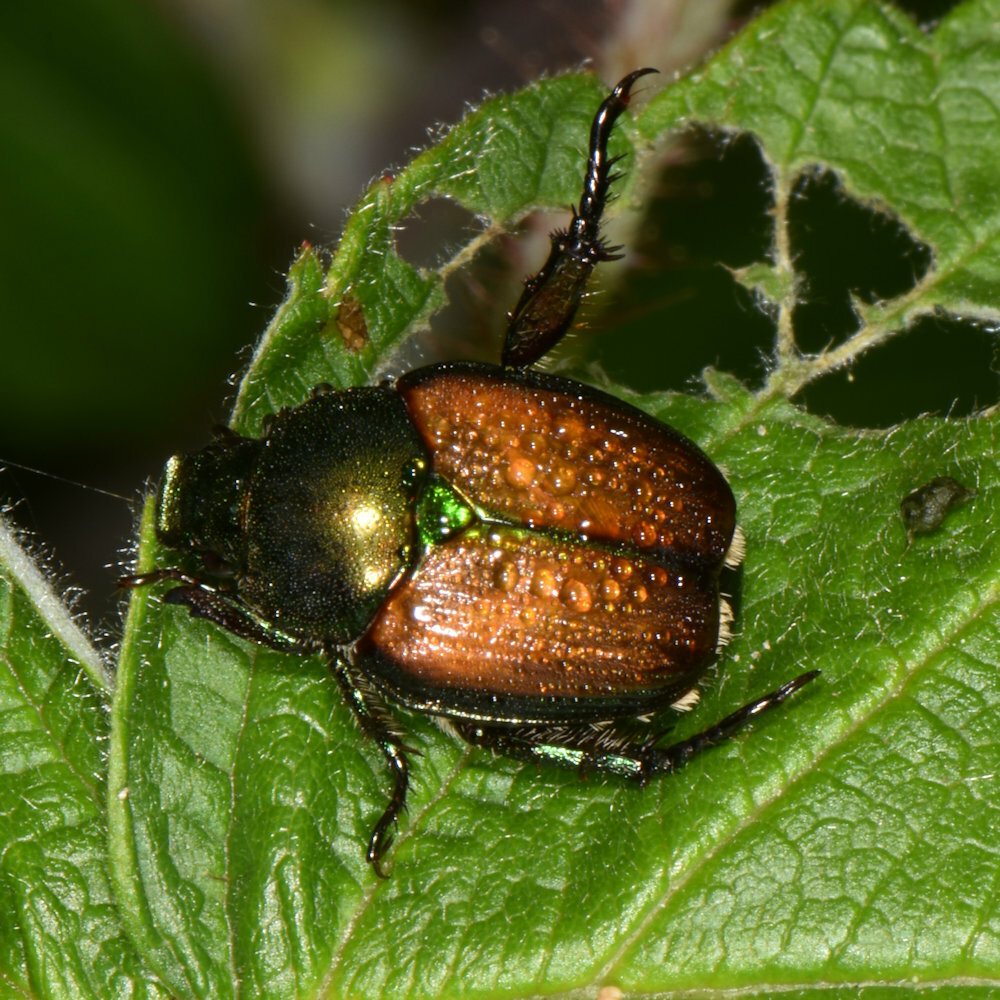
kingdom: Animalia
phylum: Arthropoda
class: Insecta
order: Coleoptera
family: Scarabaeidae
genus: Popillia
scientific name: Popillia japonica
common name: Japanese beetle
